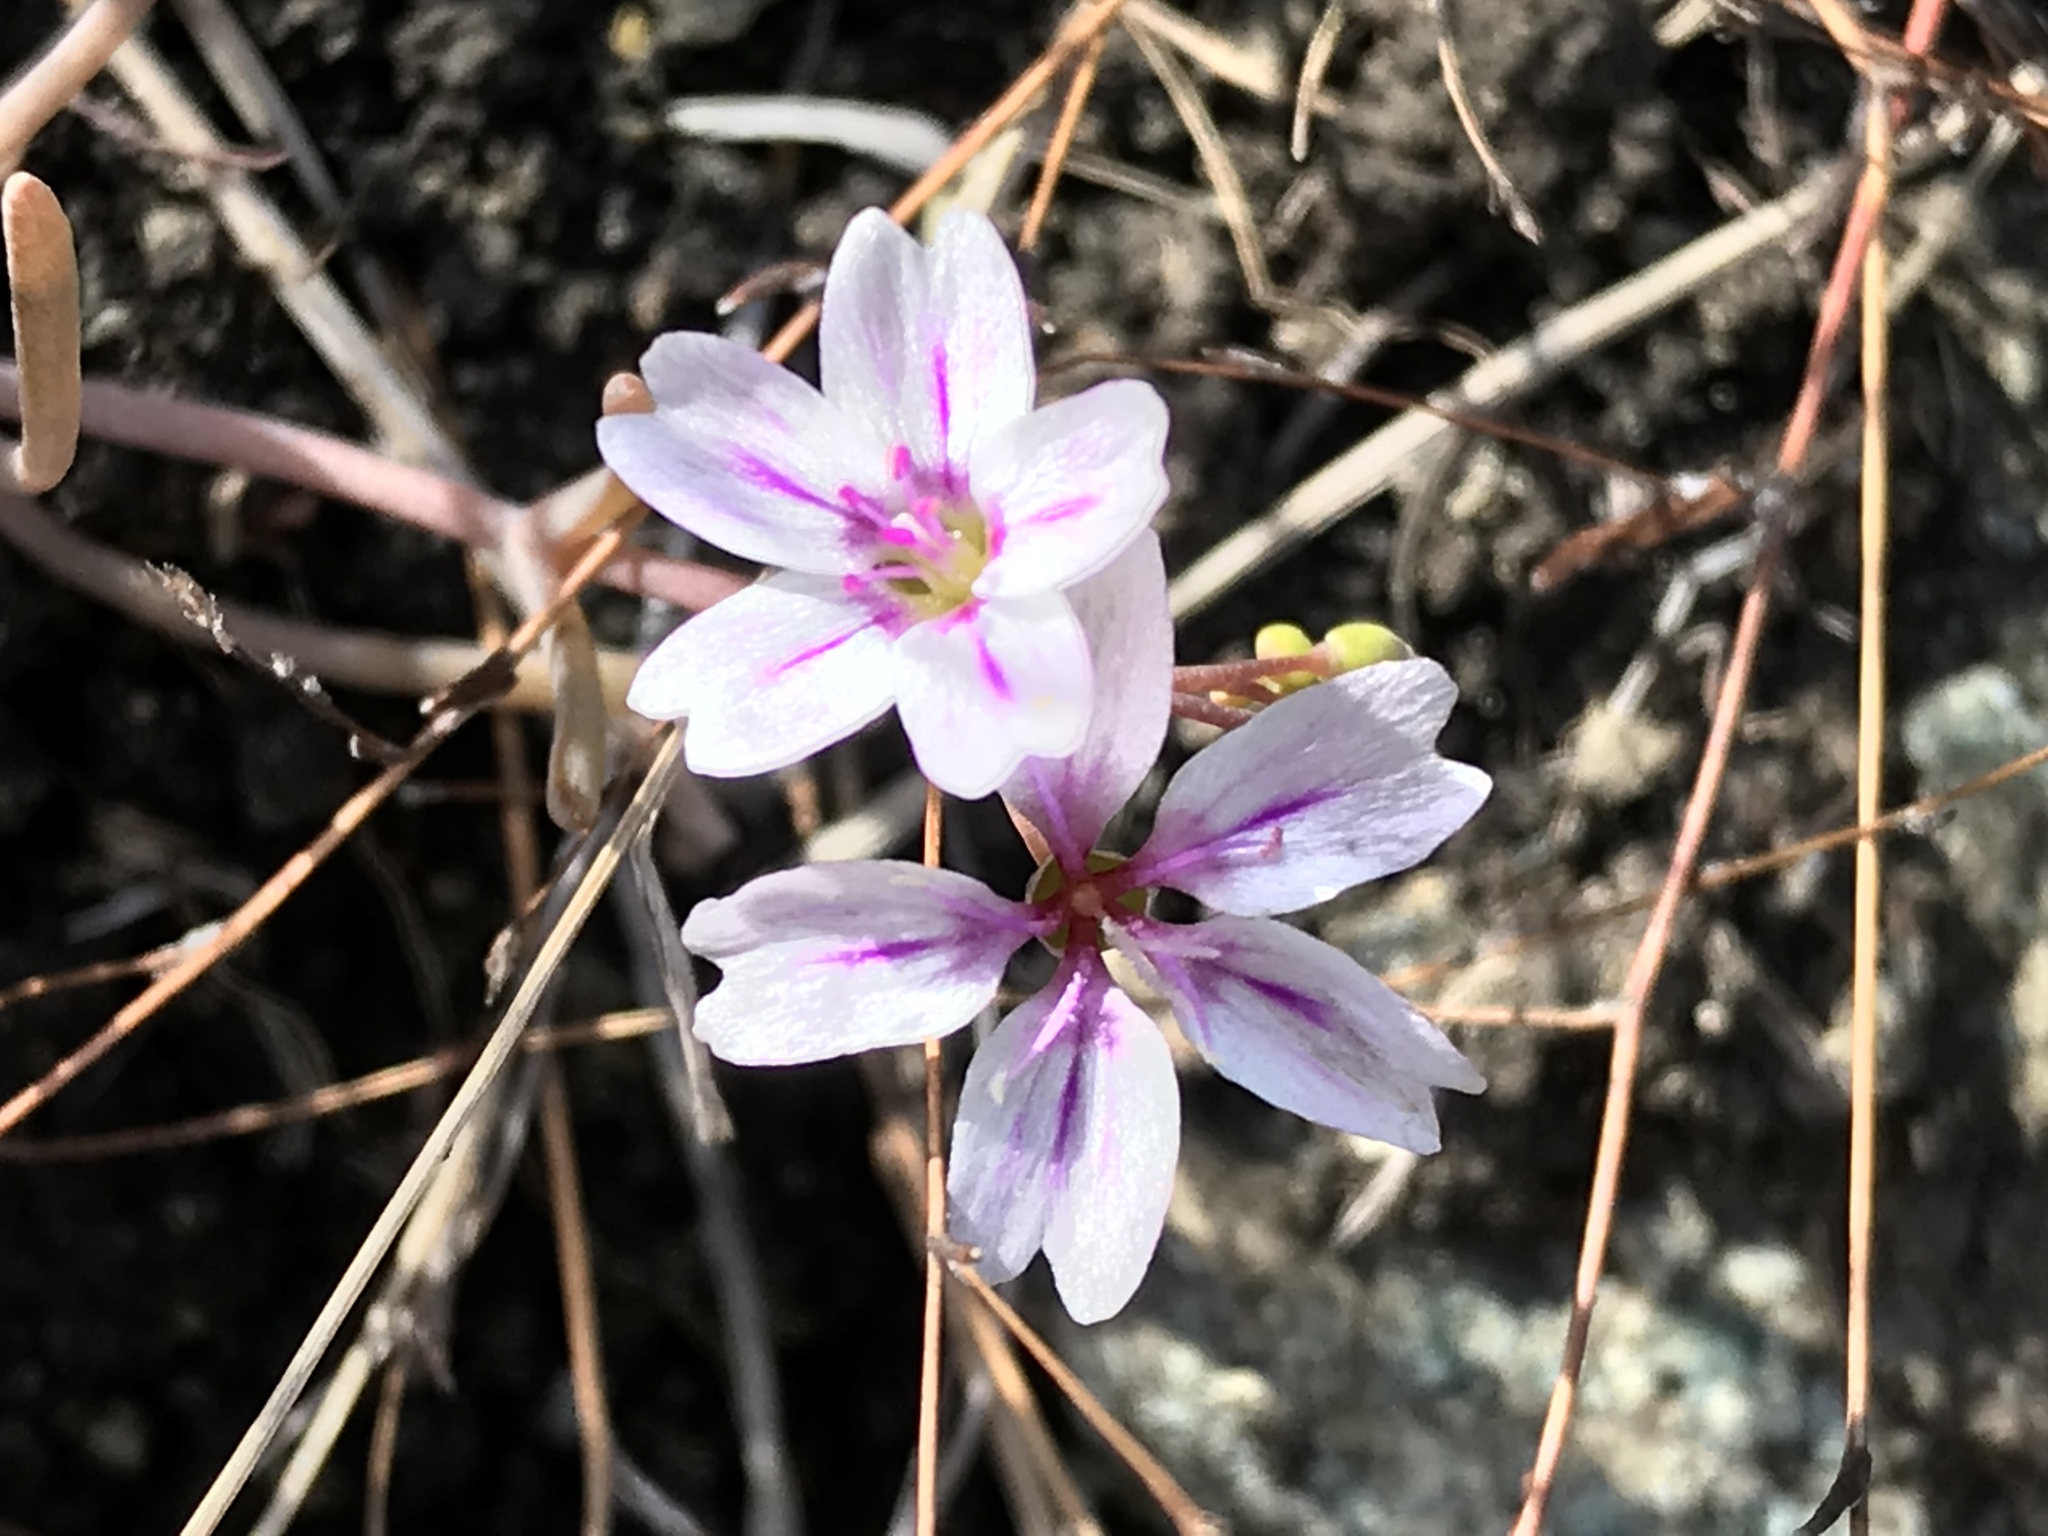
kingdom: Plantae
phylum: Tracheophyta
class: Magnoliopsida
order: Caryophyllales
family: Montiaceae
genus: Claytonia
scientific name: Claytonia gypsophiloides
